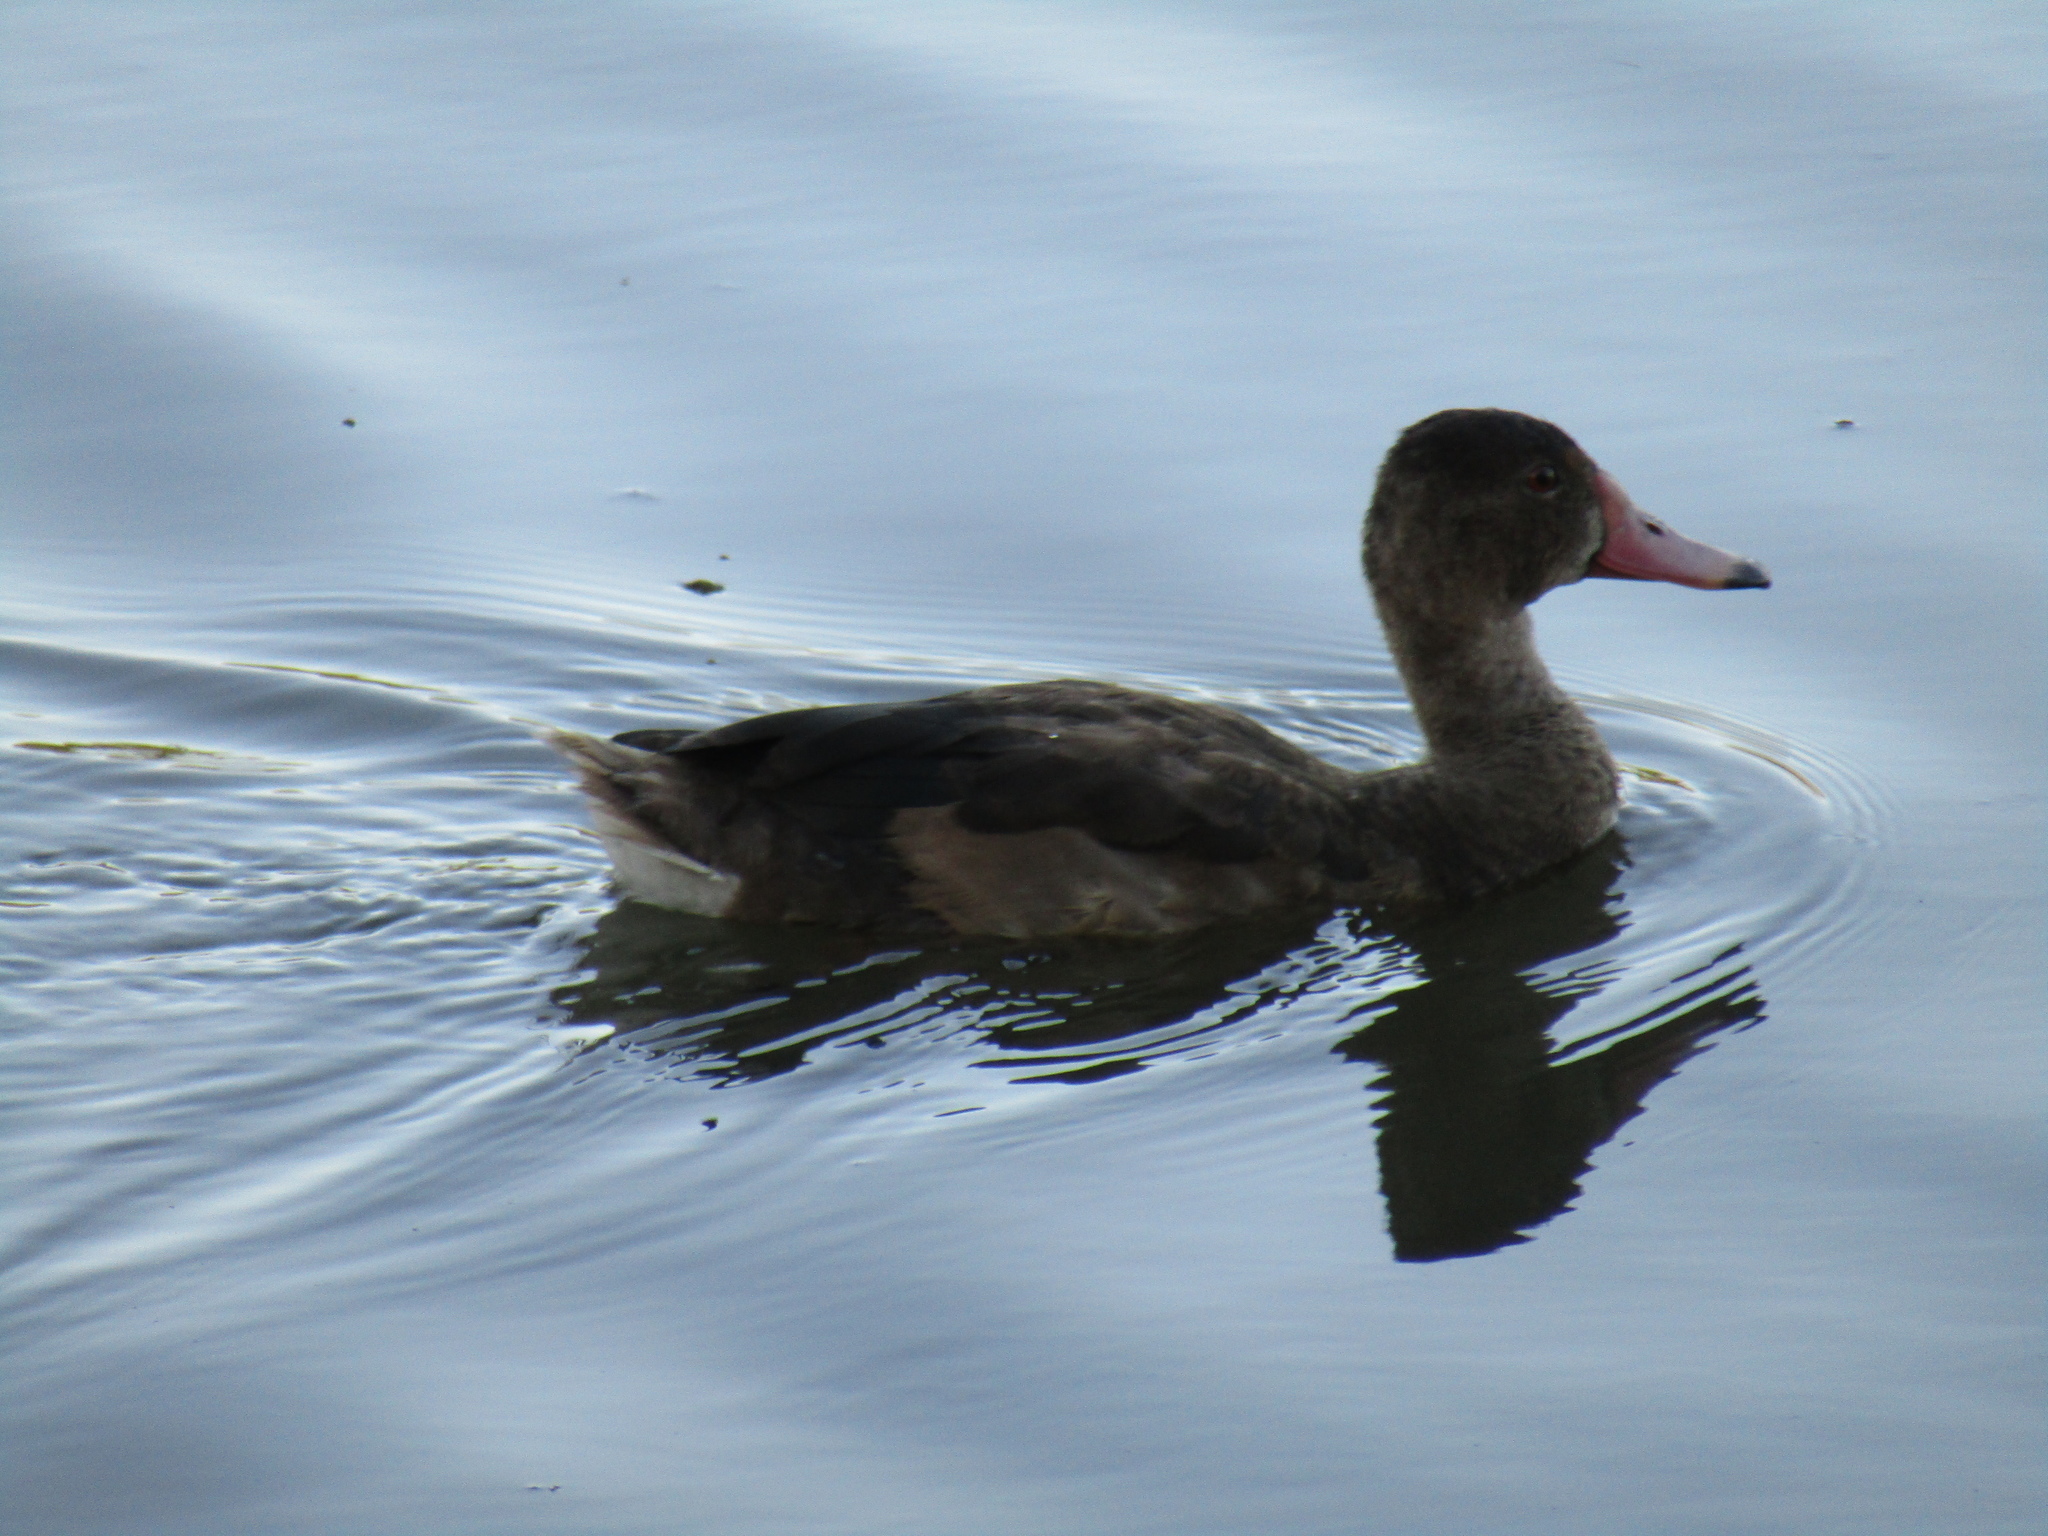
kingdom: Animalia
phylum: Chordata
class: Aves
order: Anseriformes
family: Anatidae
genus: Netta
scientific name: Netta peposaca
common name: Rosy-billed pochard
